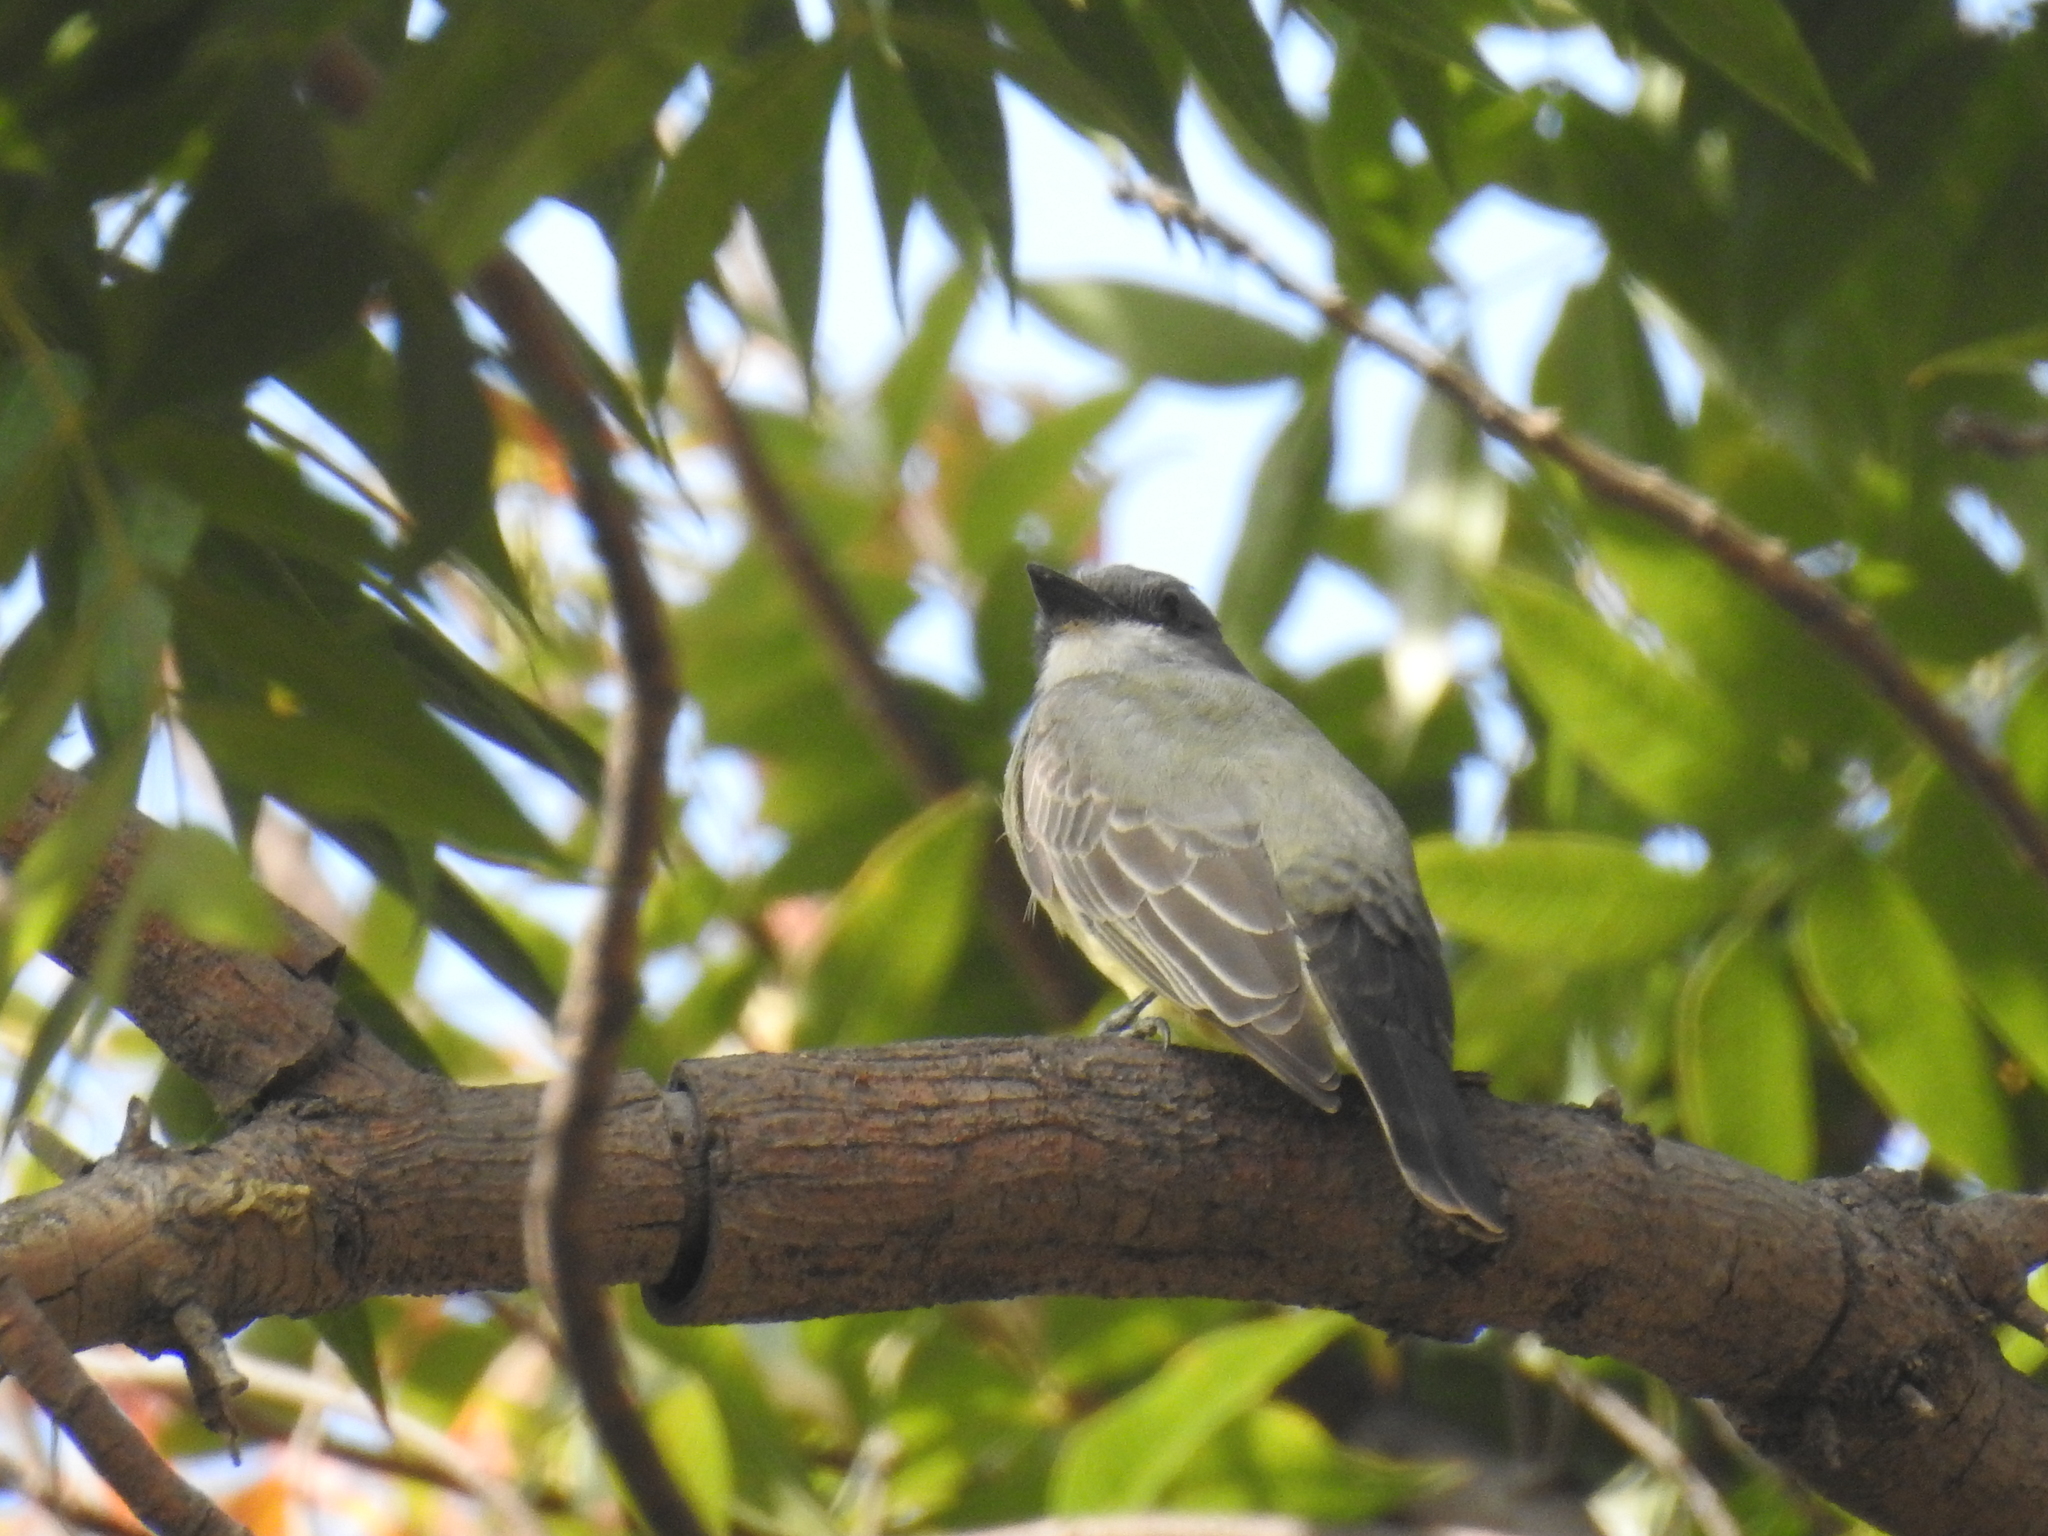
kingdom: Animalia
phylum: Chordata
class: Aves
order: Passeriformes
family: Tyrannidae
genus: Tyrannus
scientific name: Tyrannus vociferans
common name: Cassin's kingbird
